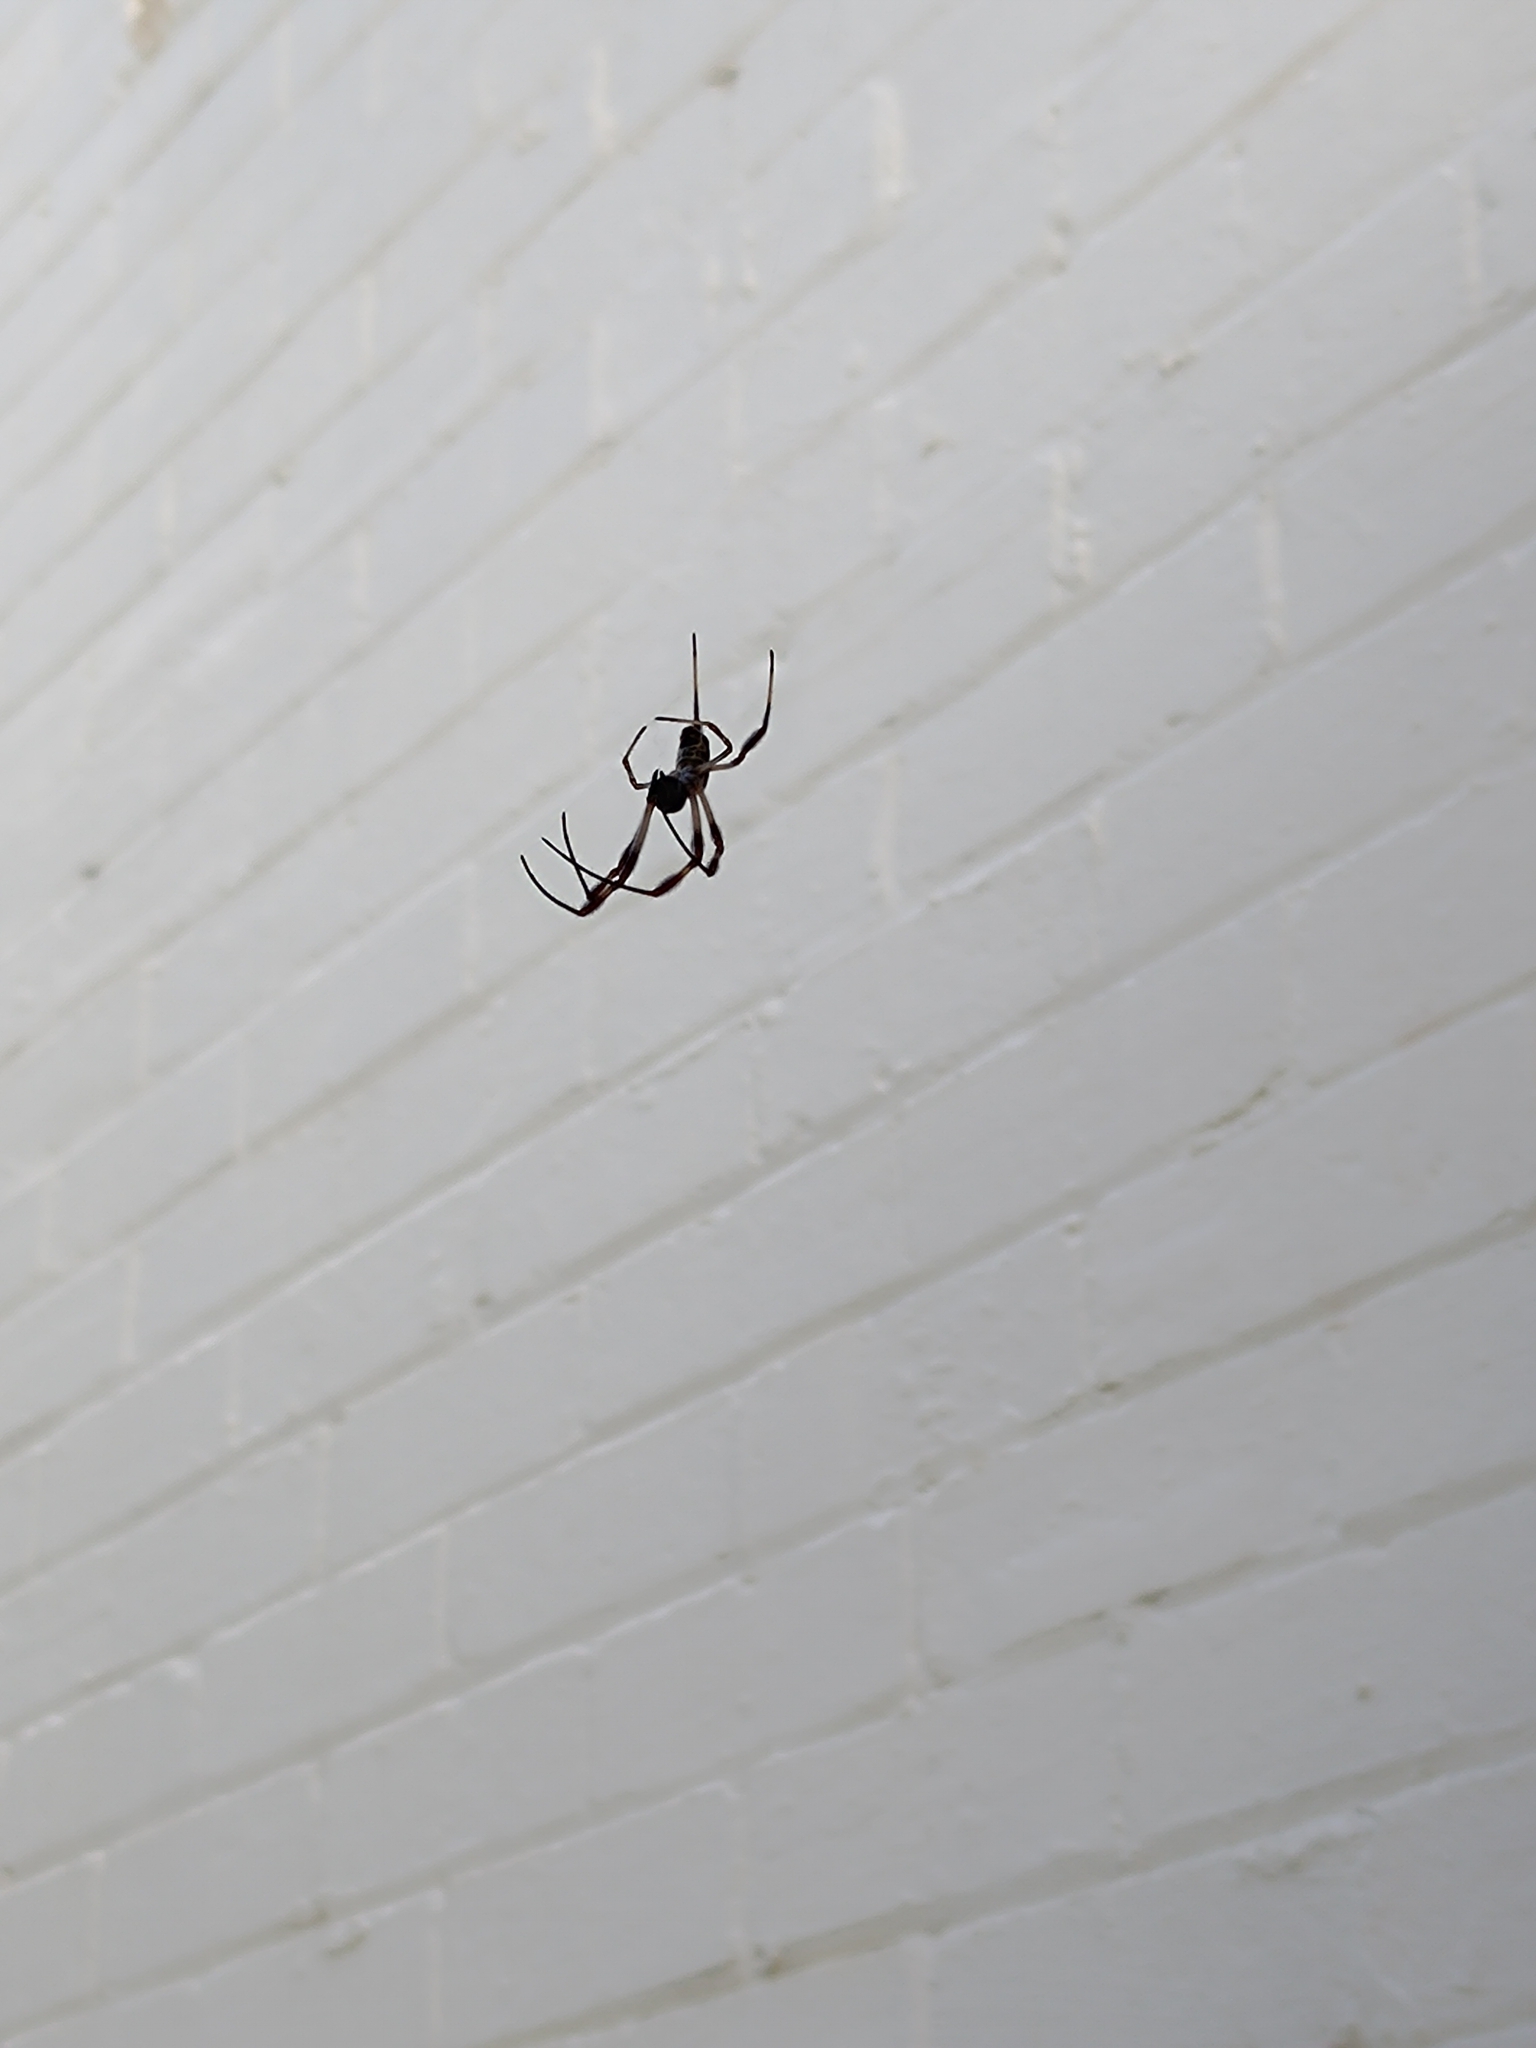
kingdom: Animalia
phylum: Arthropoda
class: Arachnida
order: Araneae
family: Araneidae
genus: Trichonephila
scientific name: Trichonephila edulis
